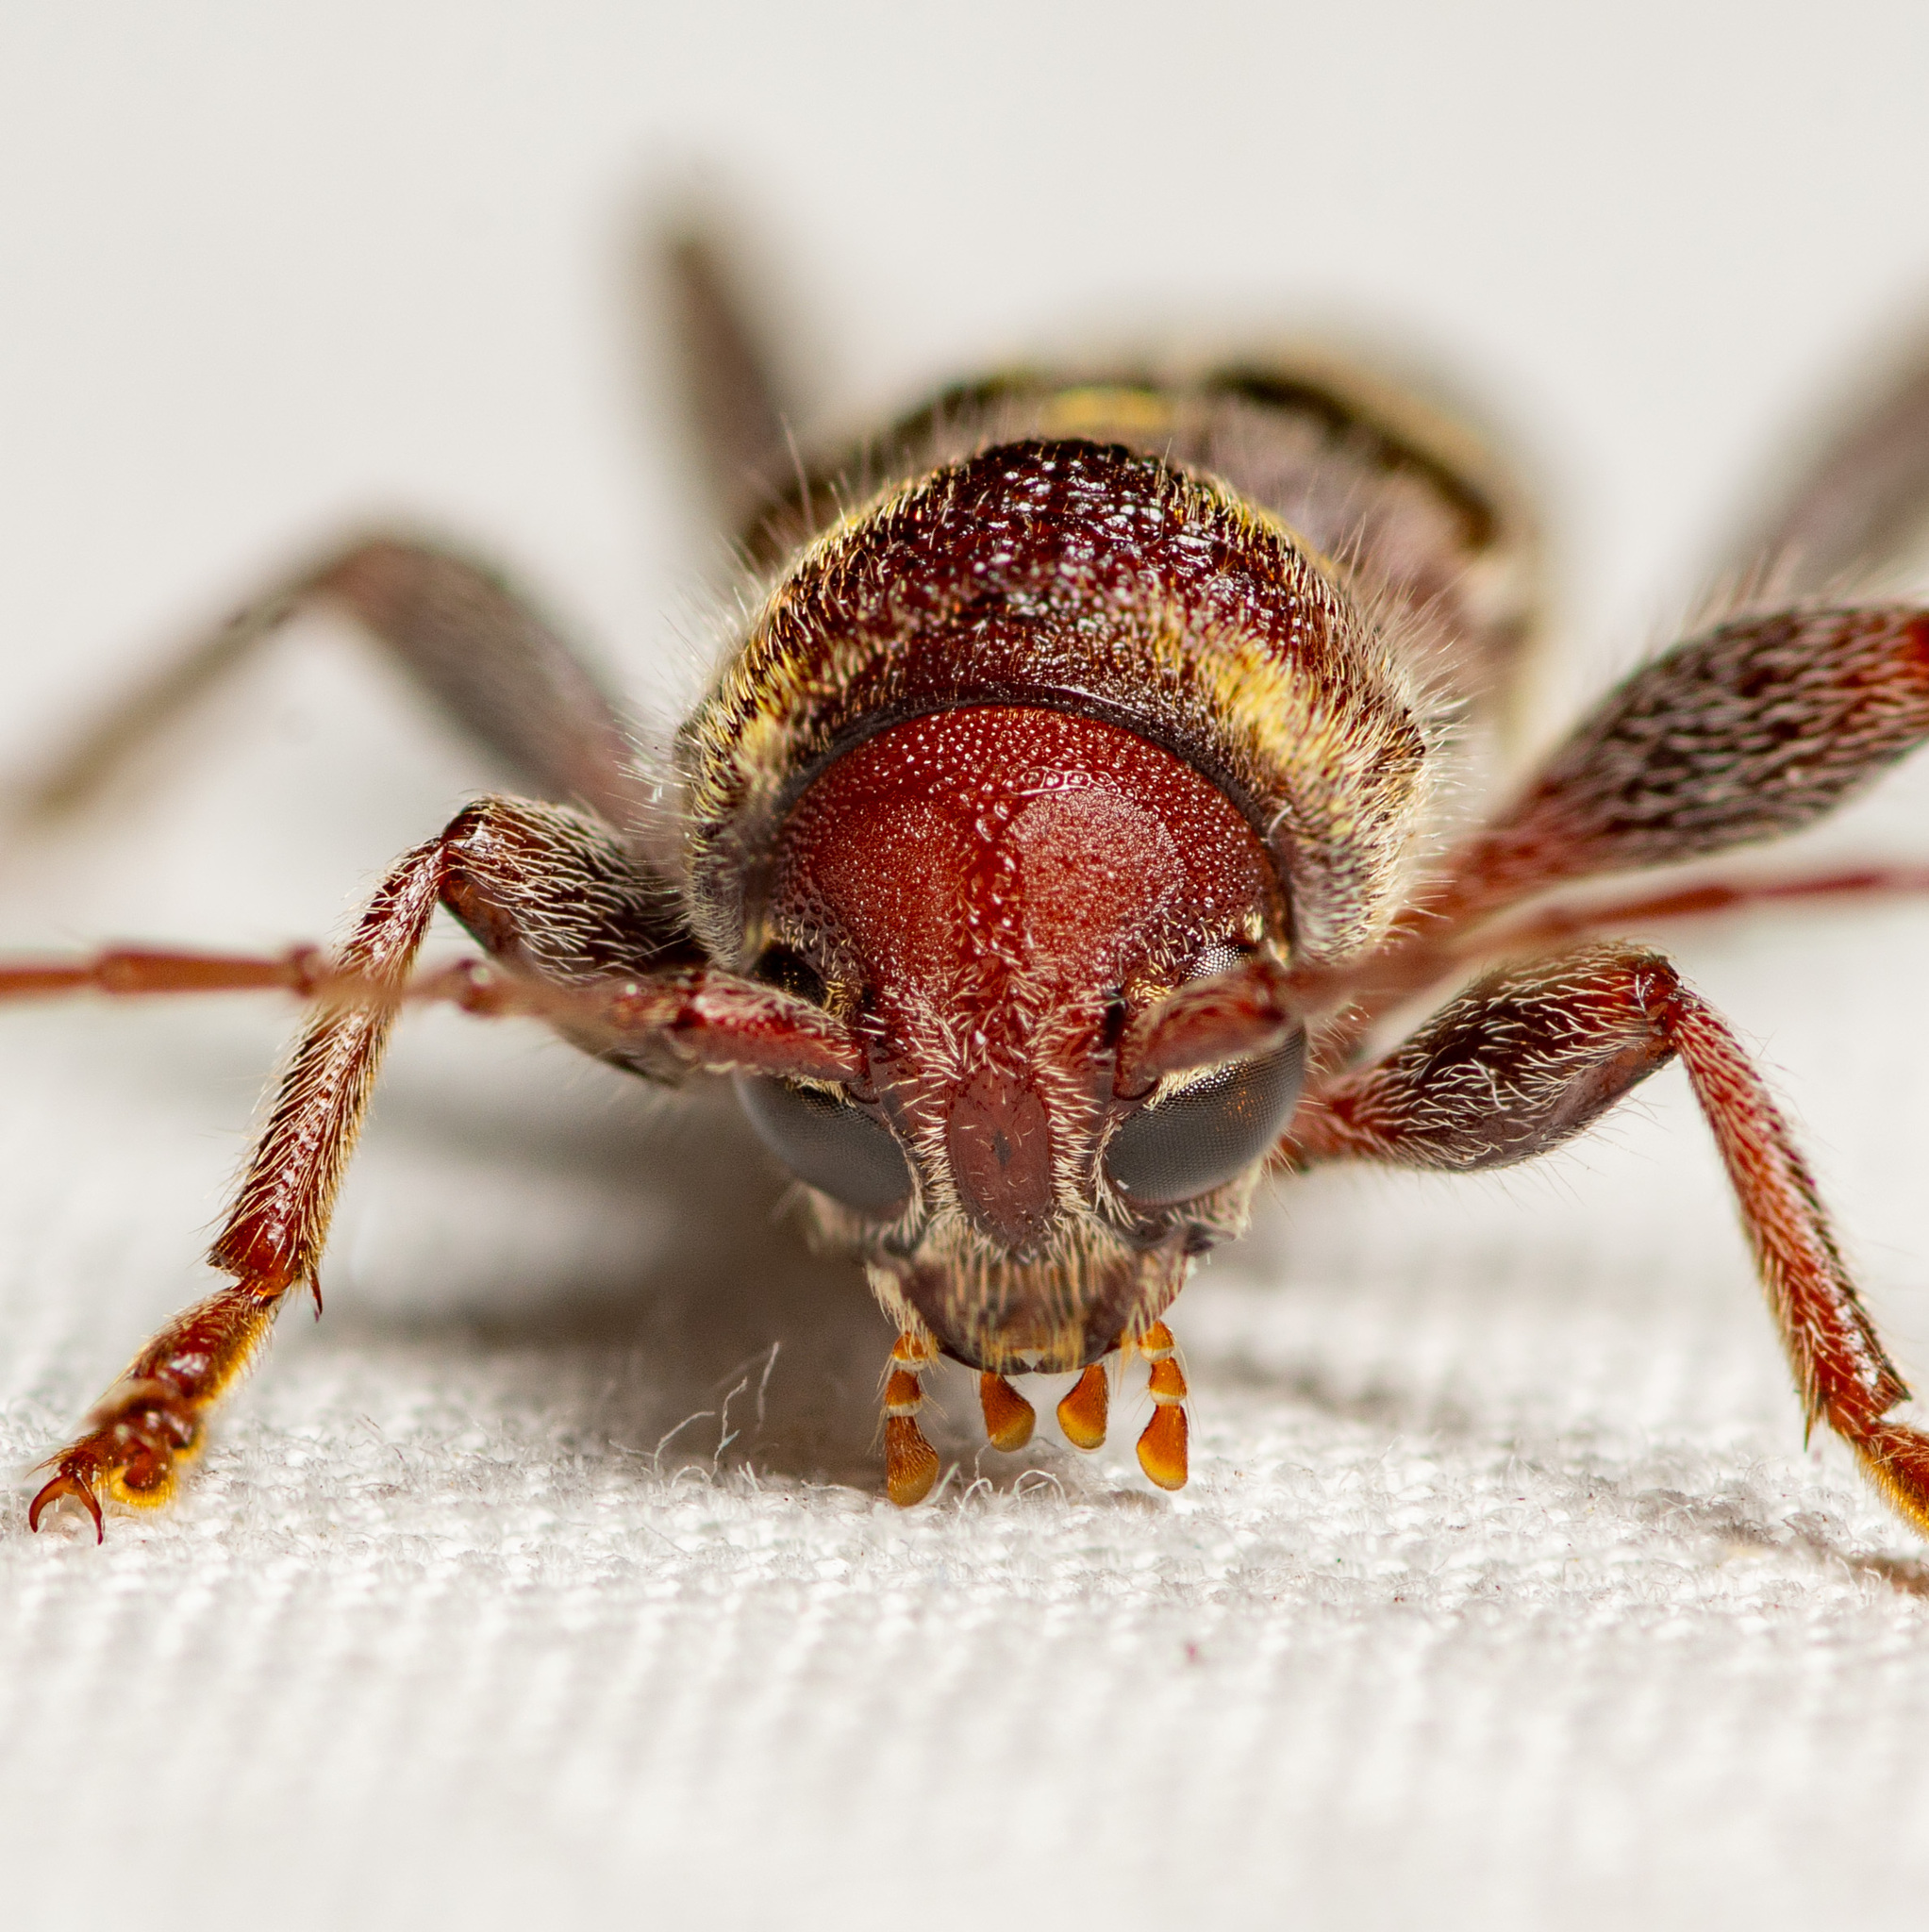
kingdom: Animalia
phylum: Arthropoda
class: Insecta
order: Coleoptera
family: Cerambycidae
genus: Xylotrechus
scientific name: Xylotrechus colonus
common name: Long-horned beetle
